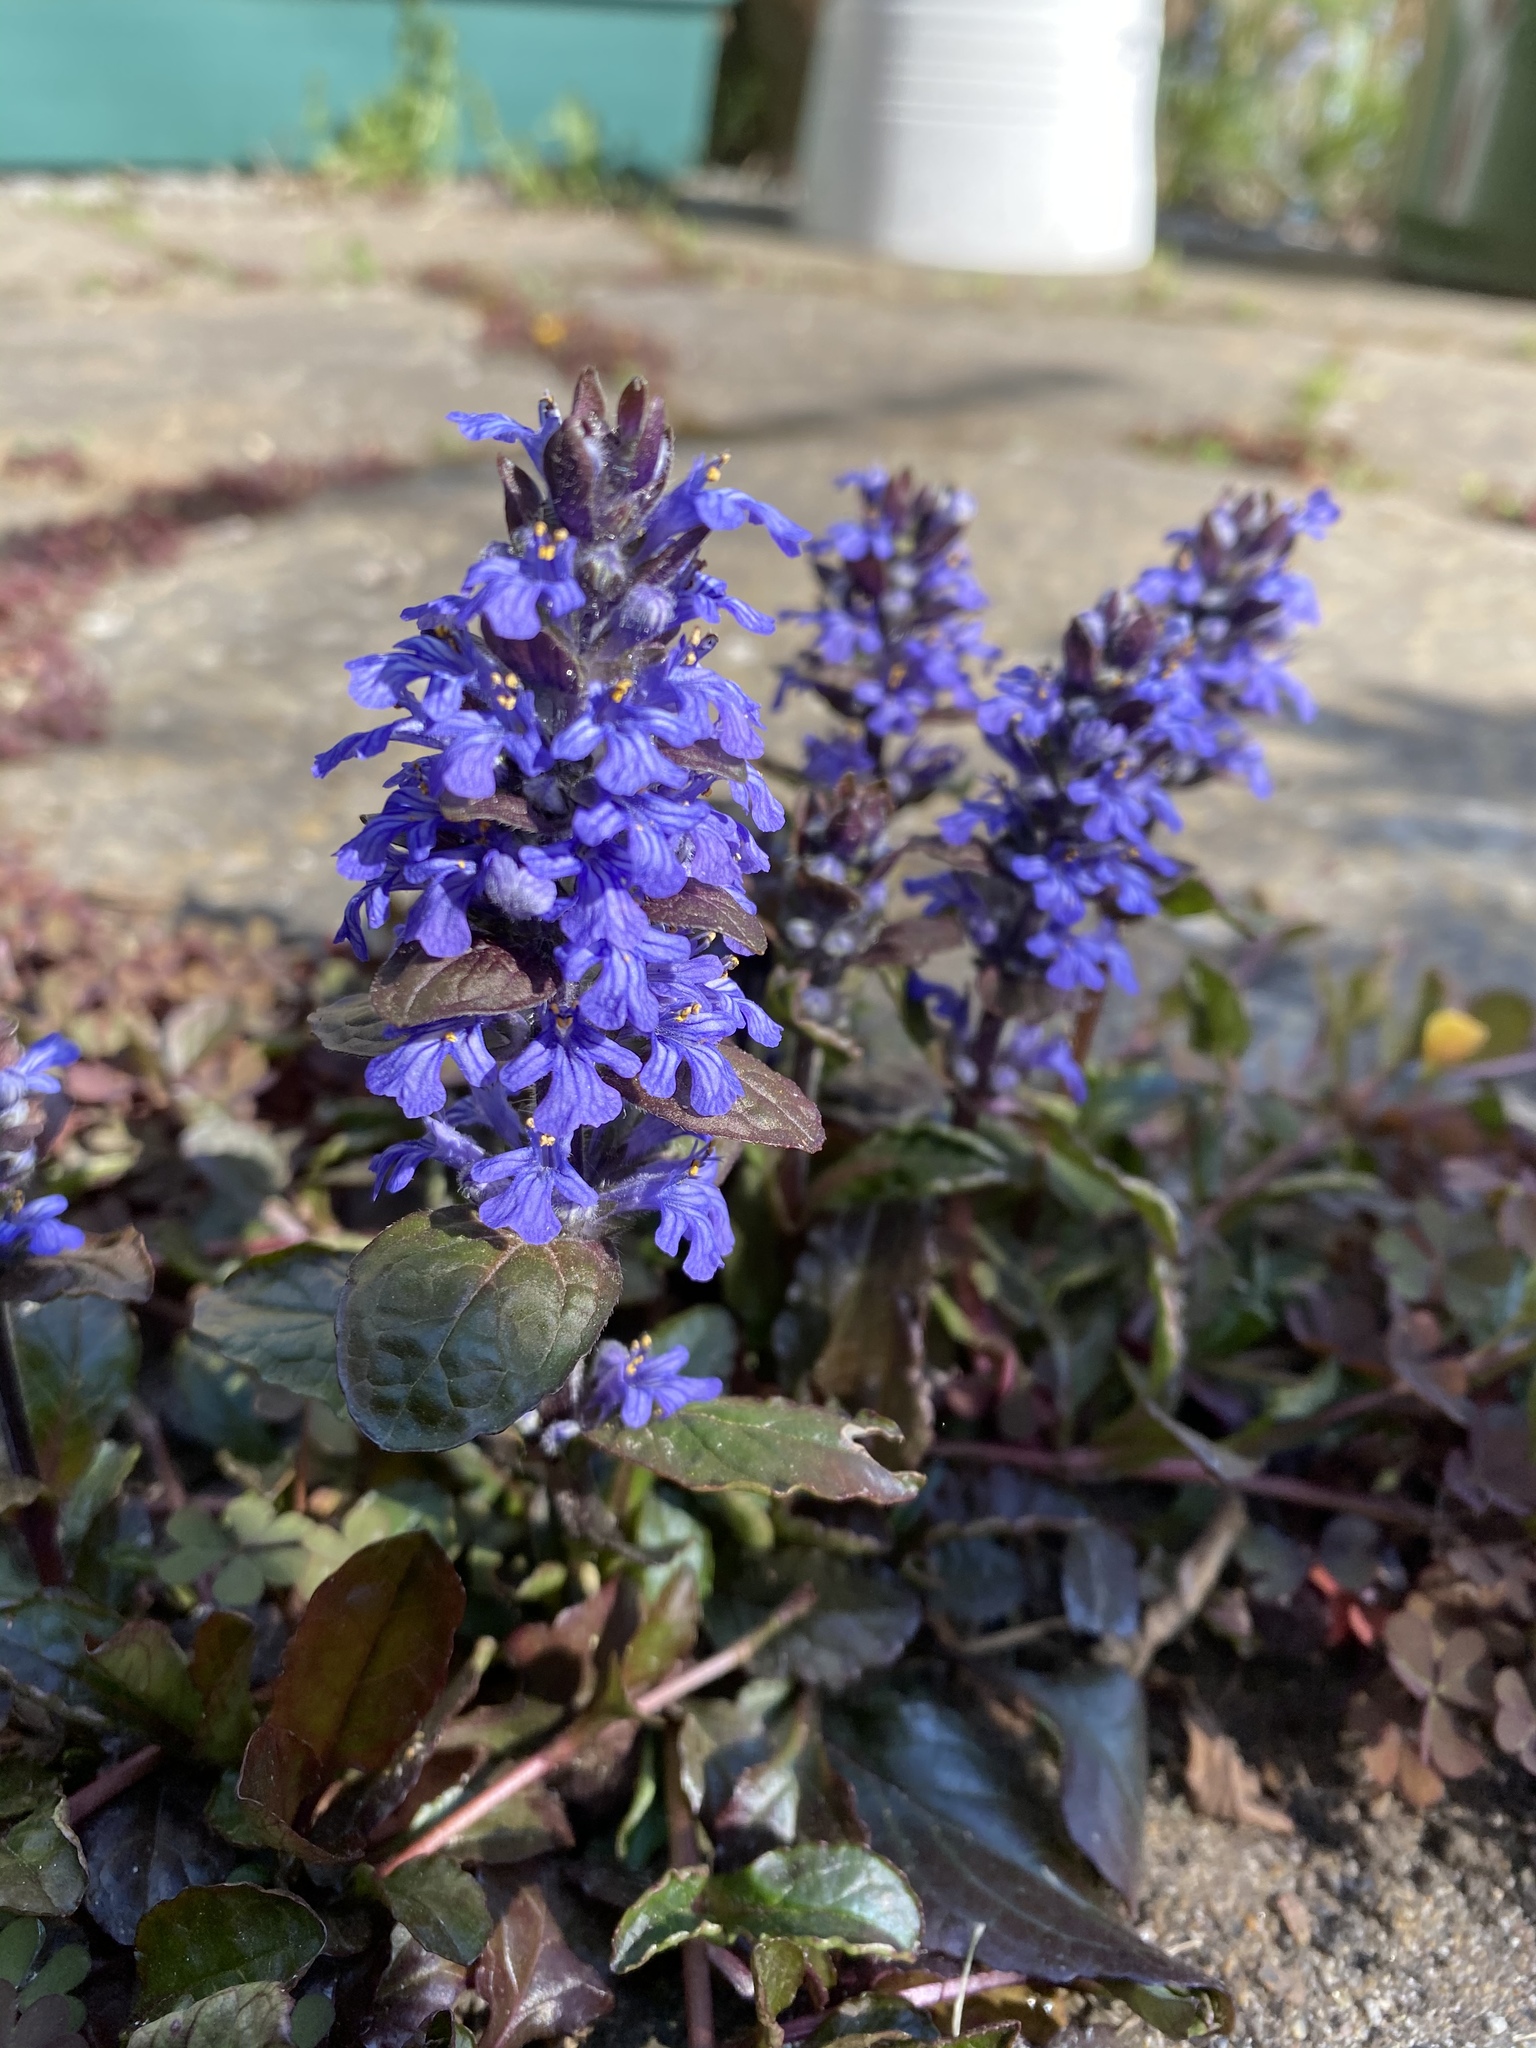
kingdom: Plantae
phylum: Tracheophyta
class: Magnoliopsida
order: Lamiales
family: Lamiaceae
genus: Ajuga
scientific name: Ajuga reptans
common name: Bugle
